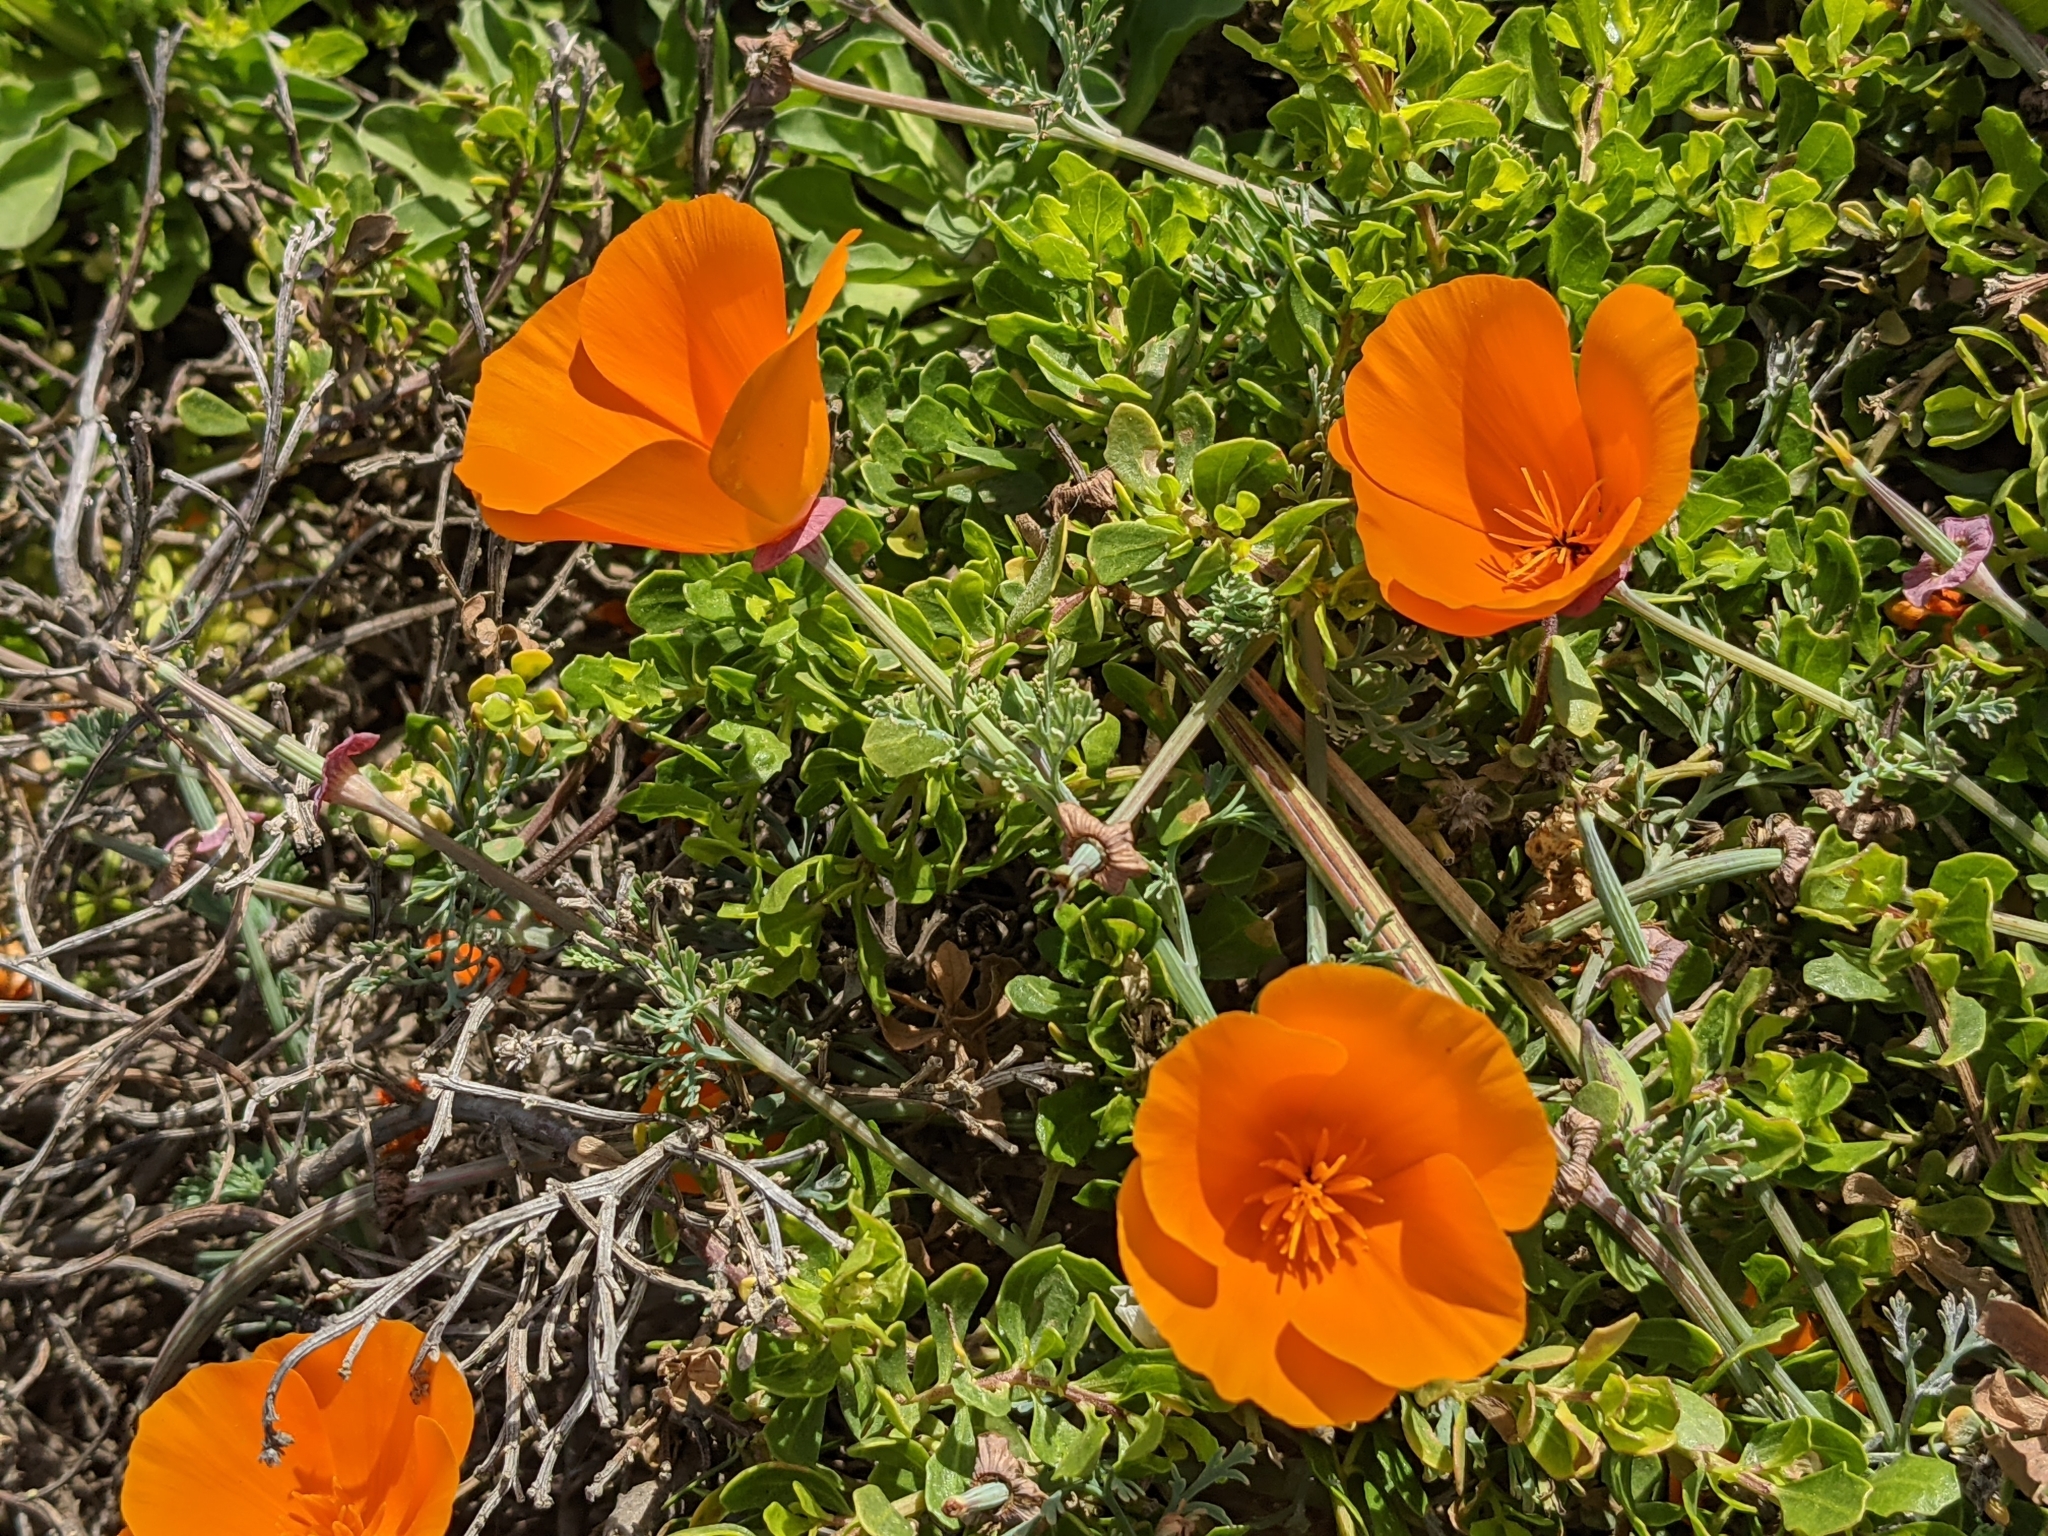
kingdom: Plantae
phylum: Tracheophyta
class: Magnoliopsida
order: Ranunculales
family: Papaveraceae
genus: Eschscholzia
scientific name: Eschscholzia californica
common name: California poppy
